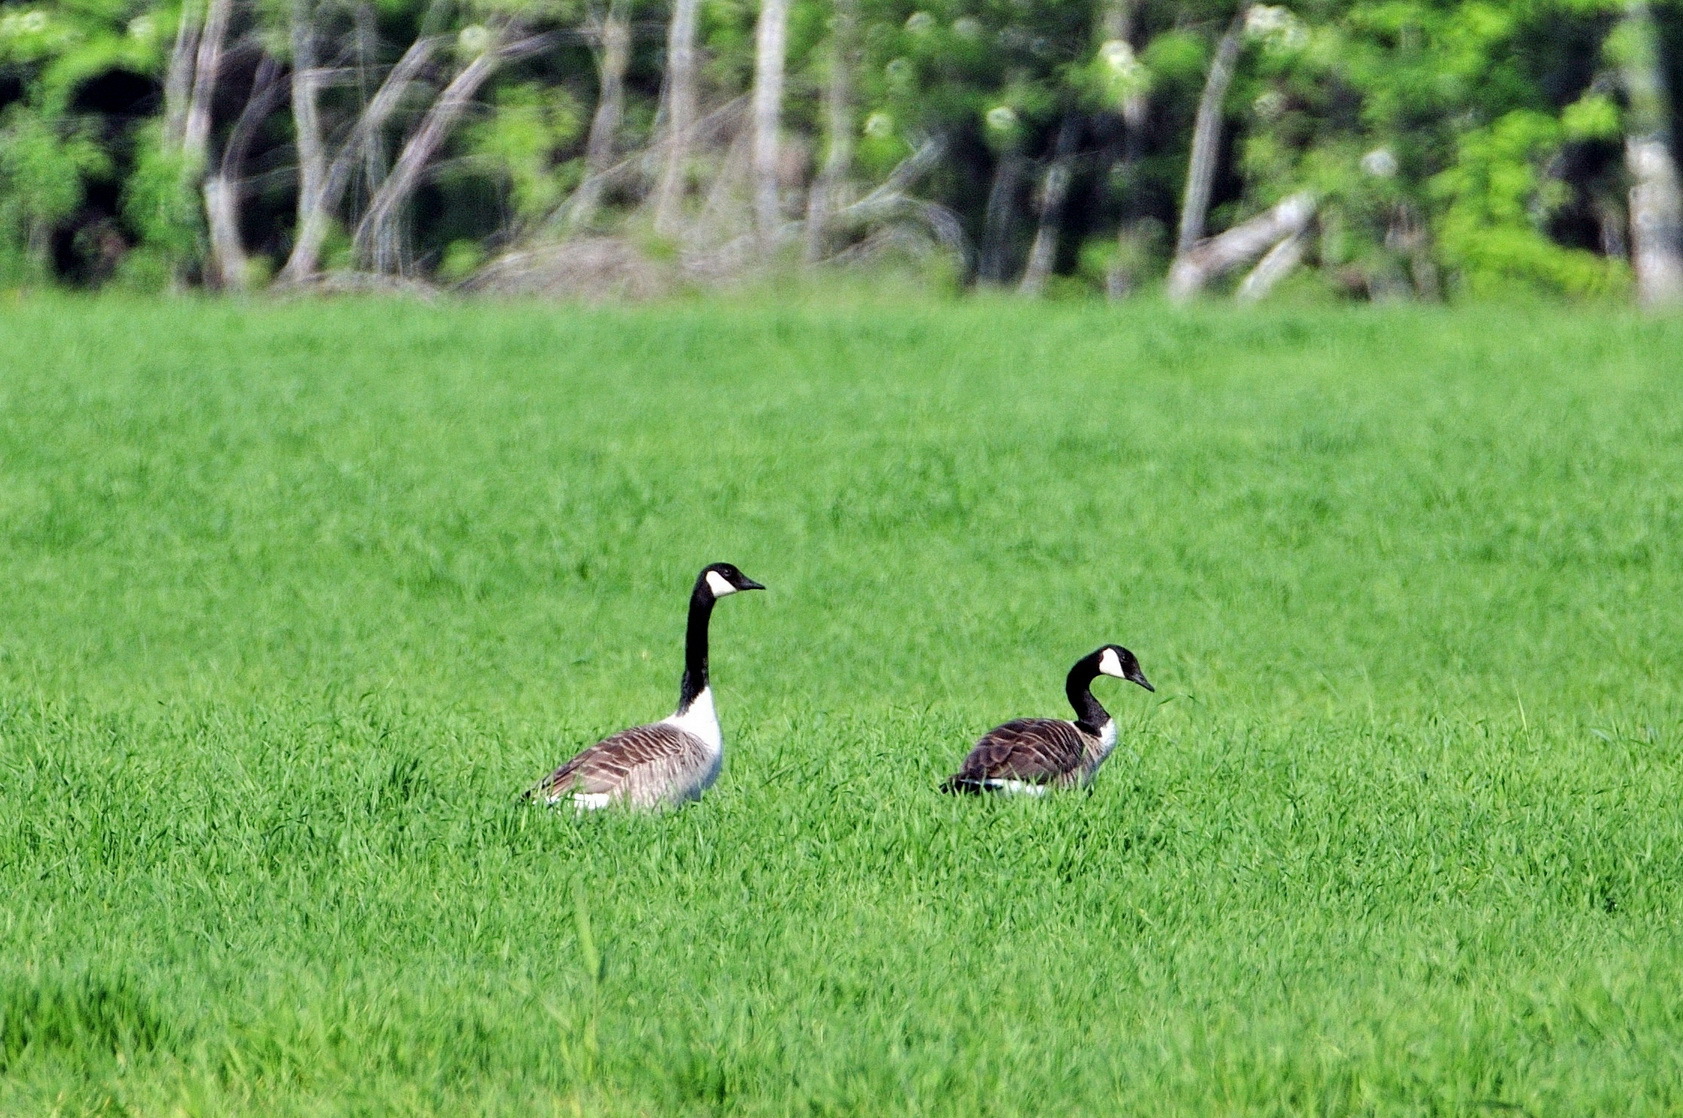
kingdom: Animalia
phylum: Chordata
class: Aves
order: Anseriformes
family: Anatidae
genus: Branta
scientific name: Branta canadensis
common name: Canada goose
